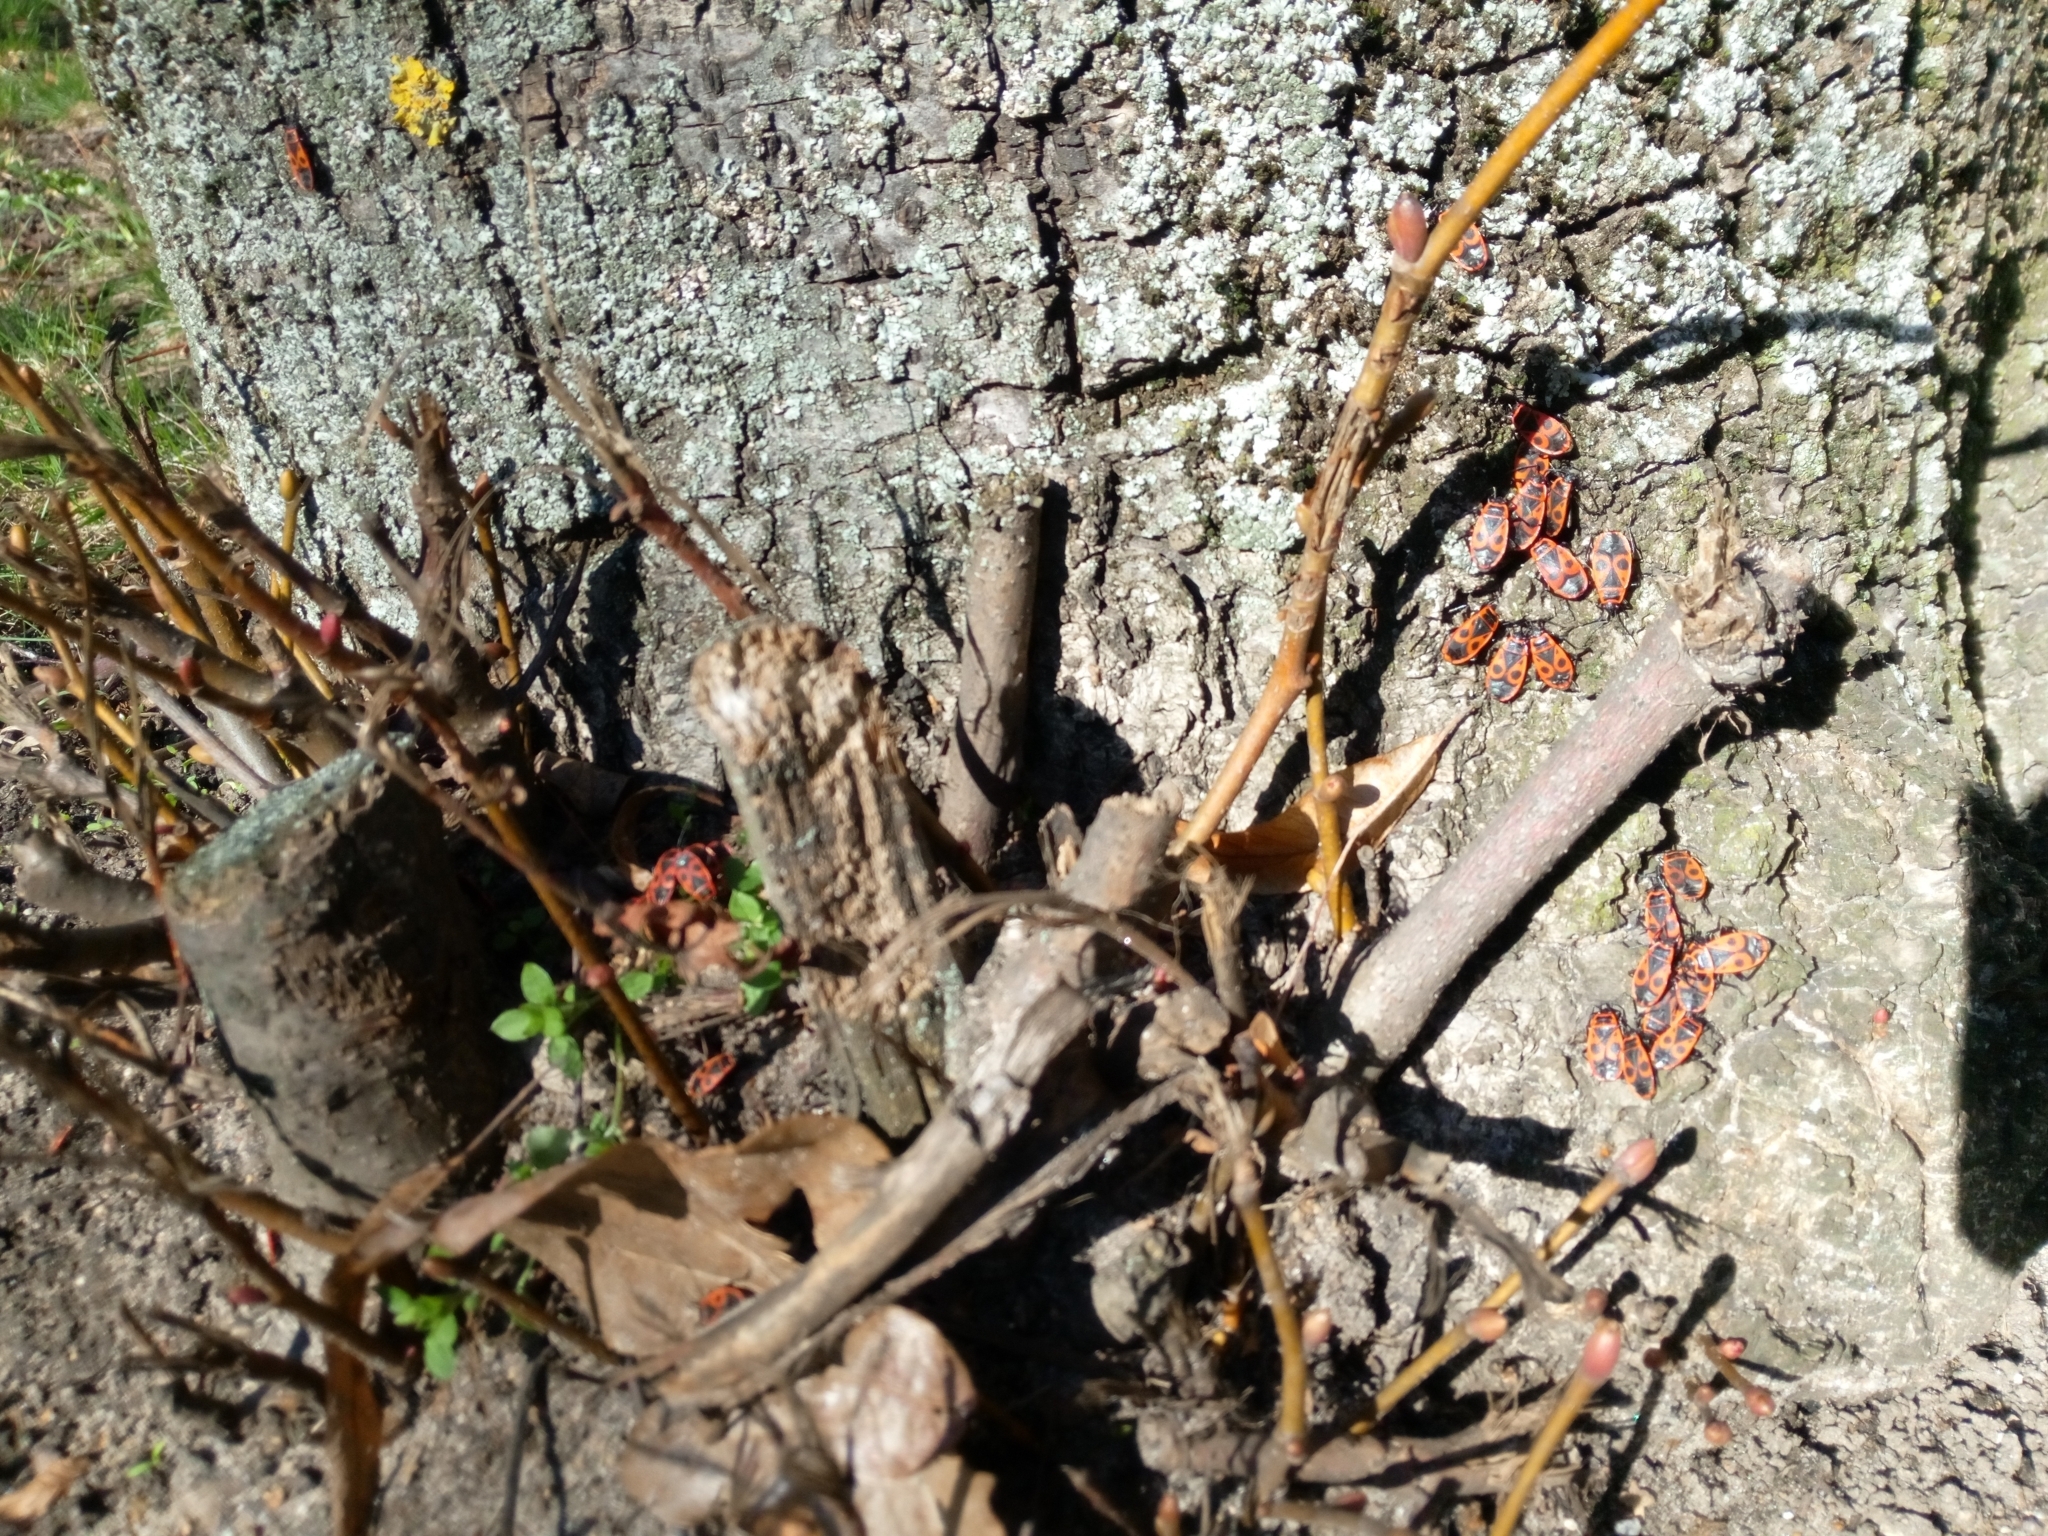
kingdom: Animalia
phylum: Arthropoda
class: Insecta
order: Hemiptera
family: Pyrrhocoridae
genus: Pyrrhocoris
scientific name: Pyrrhocoris apterus
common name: Firebug
